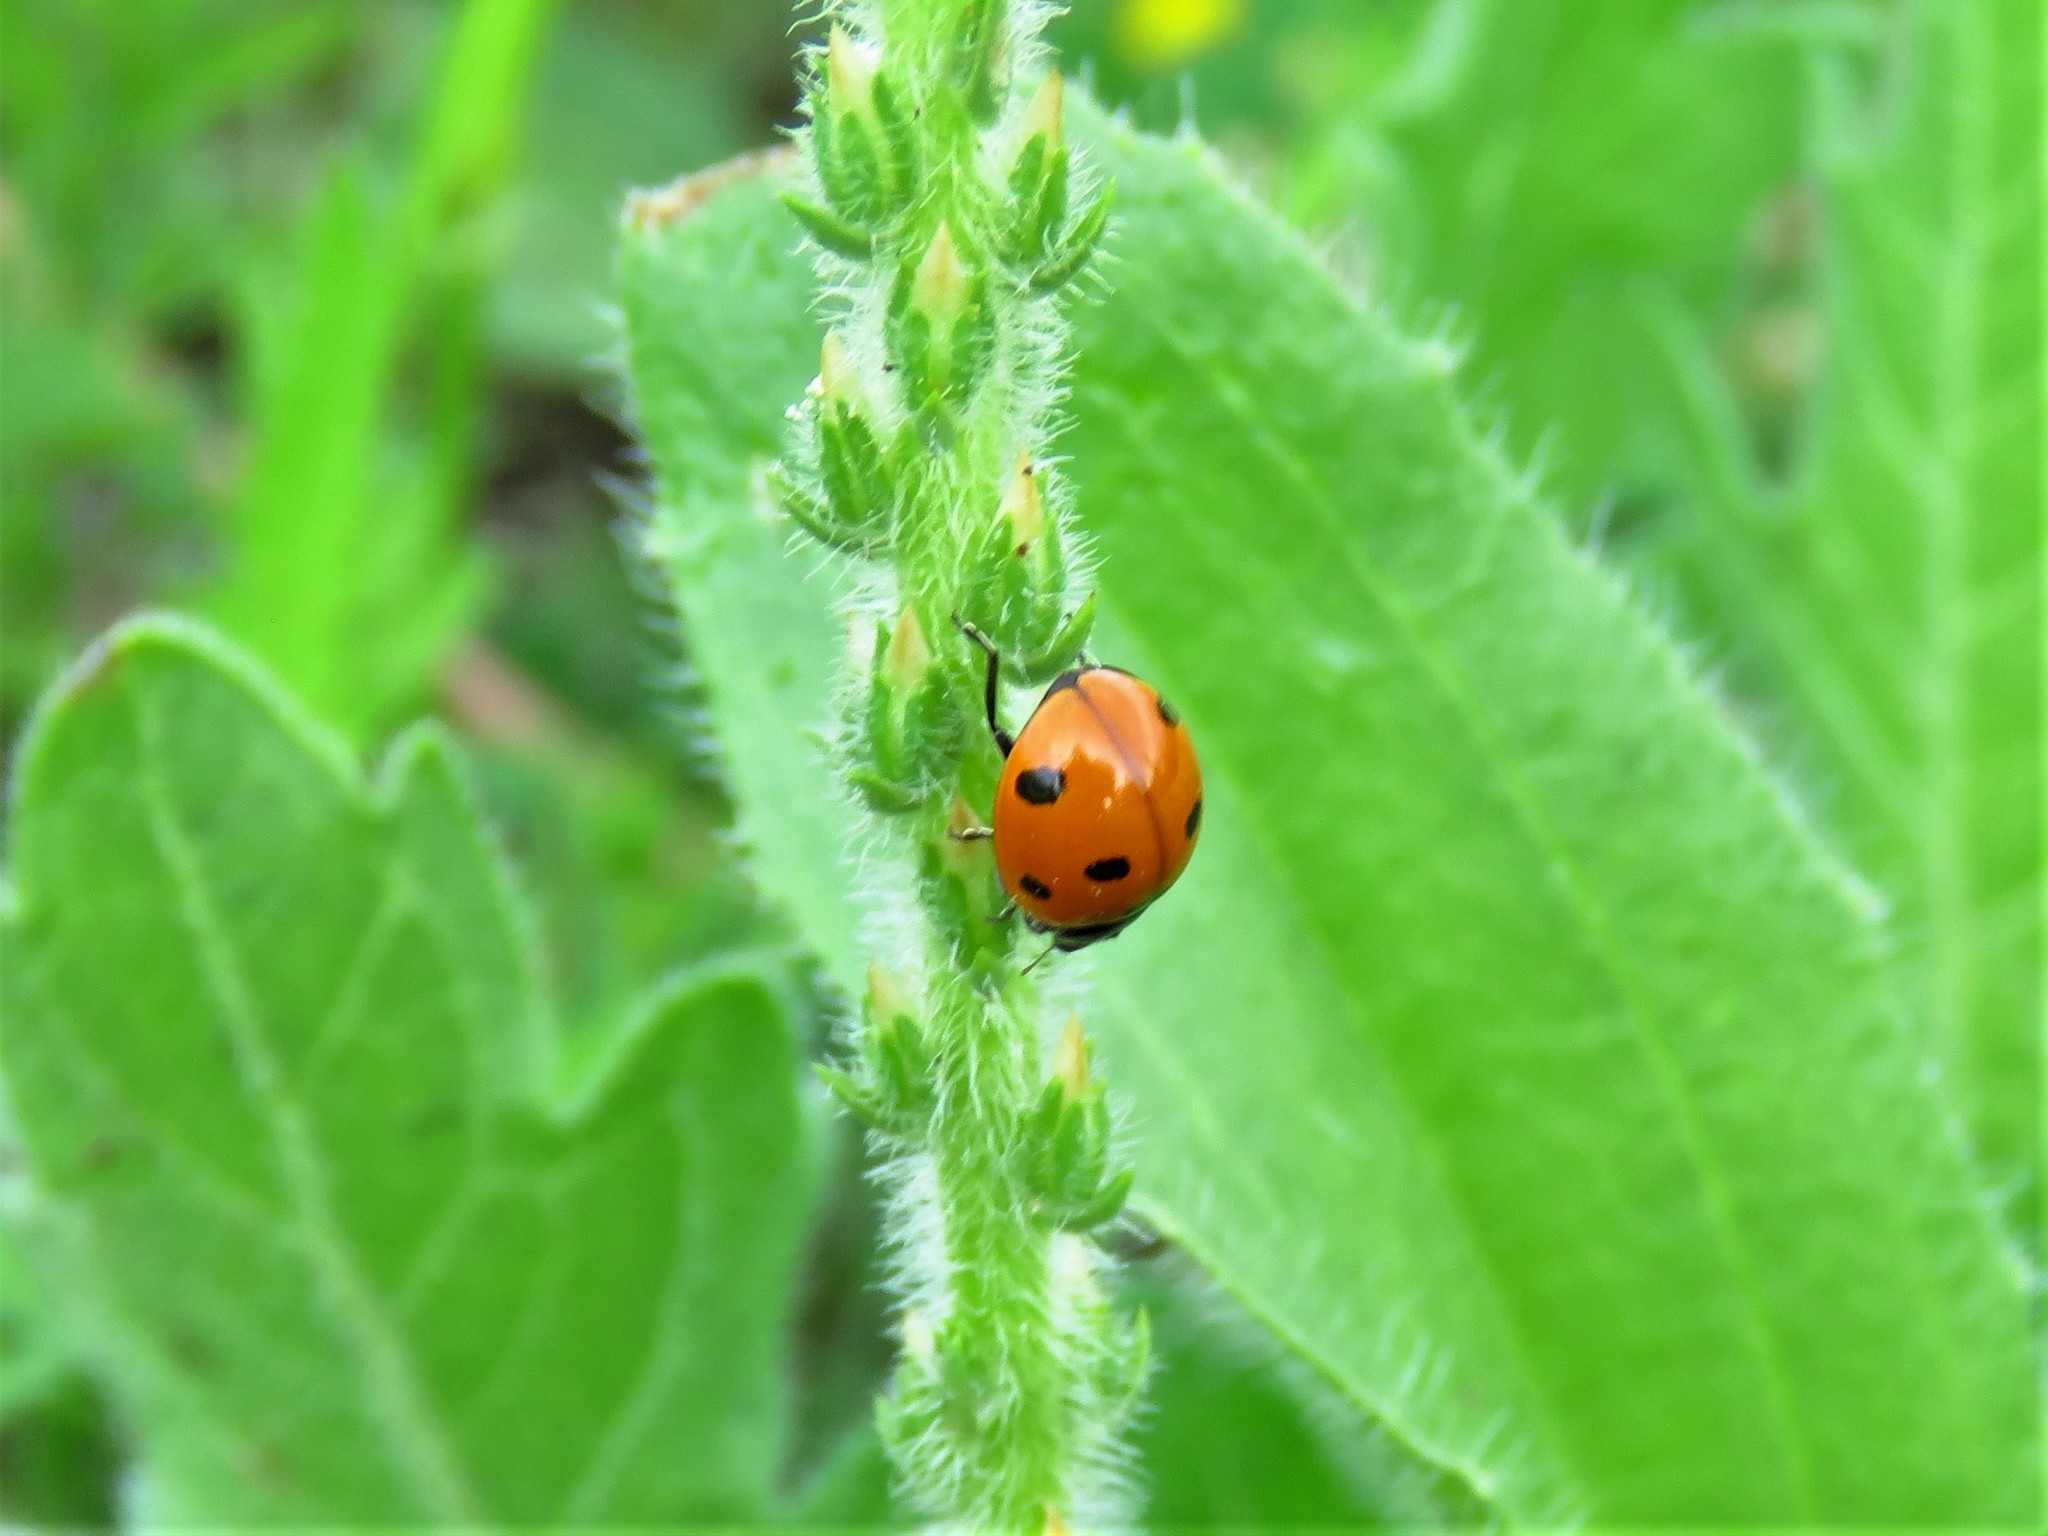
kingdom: Animalia
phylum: Arthropoda
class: Insecta
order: Coleoptera
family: Coccinellidae
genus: Coccinella
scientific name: Coccinella septempunctata
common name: Sevenspotted lady beetle
